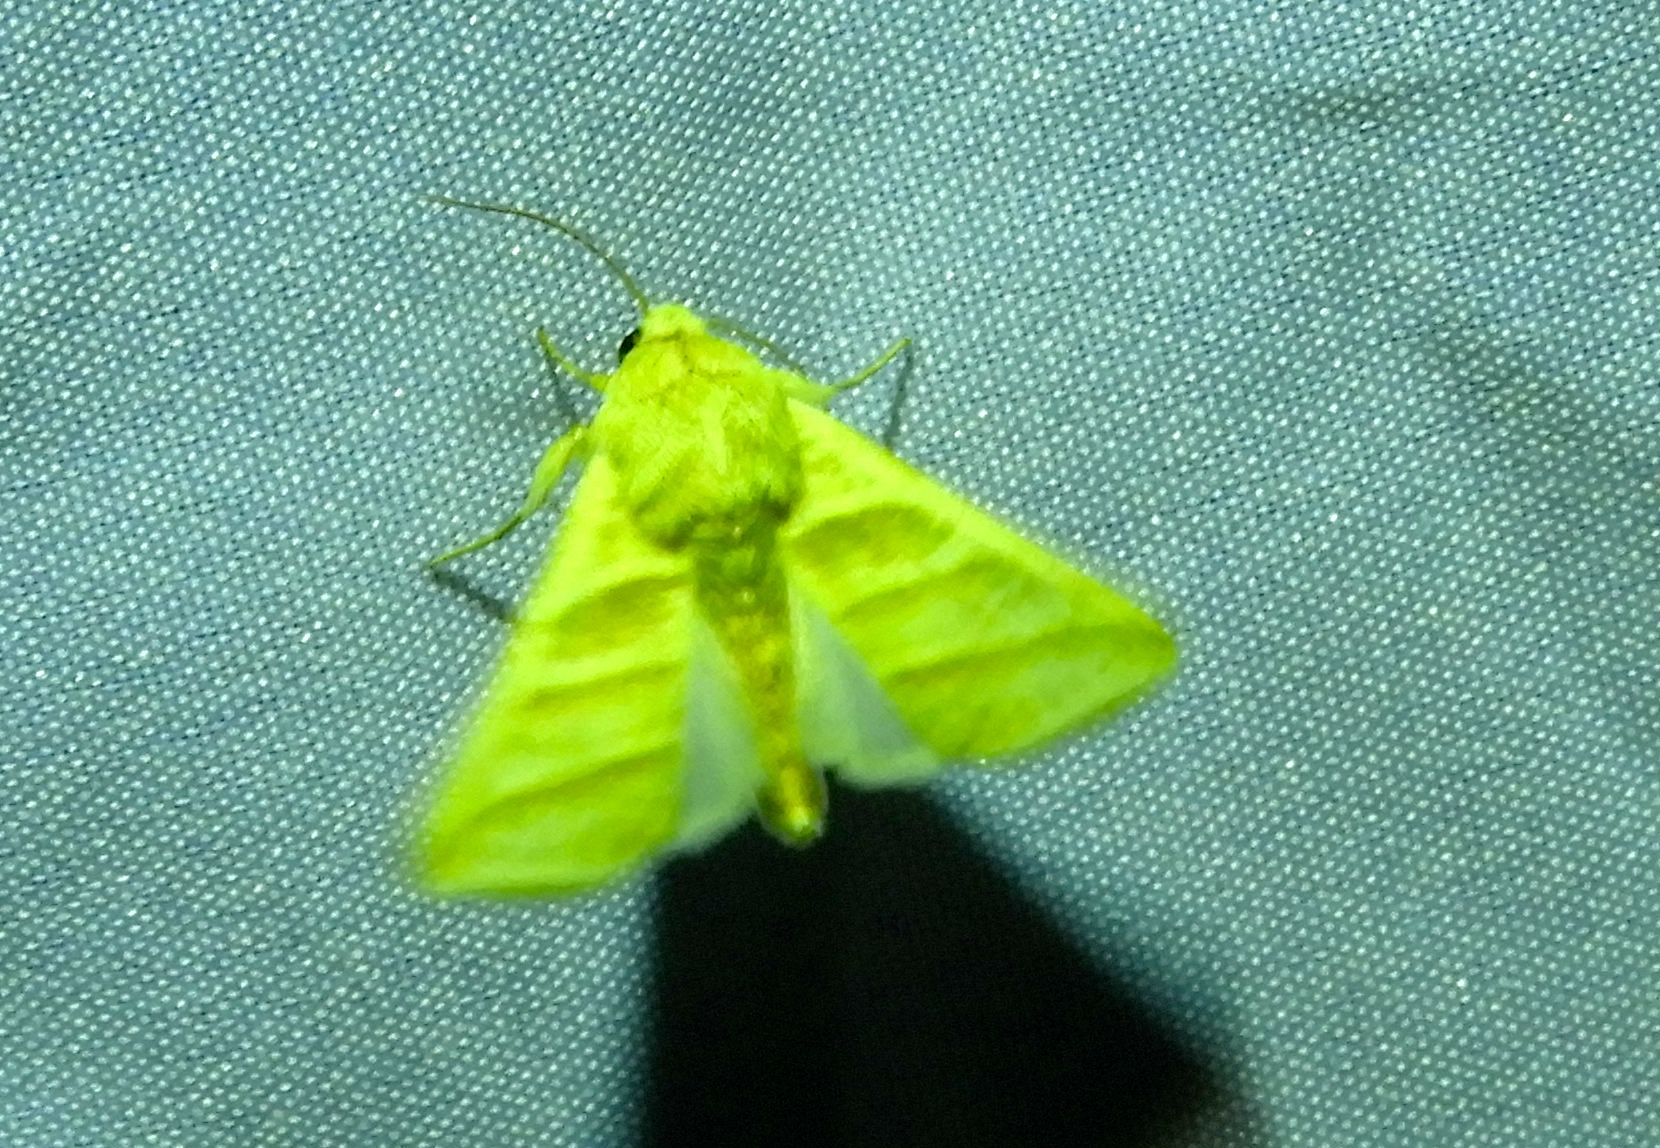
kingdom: Animalia
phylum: Arthropoda
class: Insecta
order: Lepidoptera
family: Noctuidae
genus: Chloridea
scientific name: Chloridea
